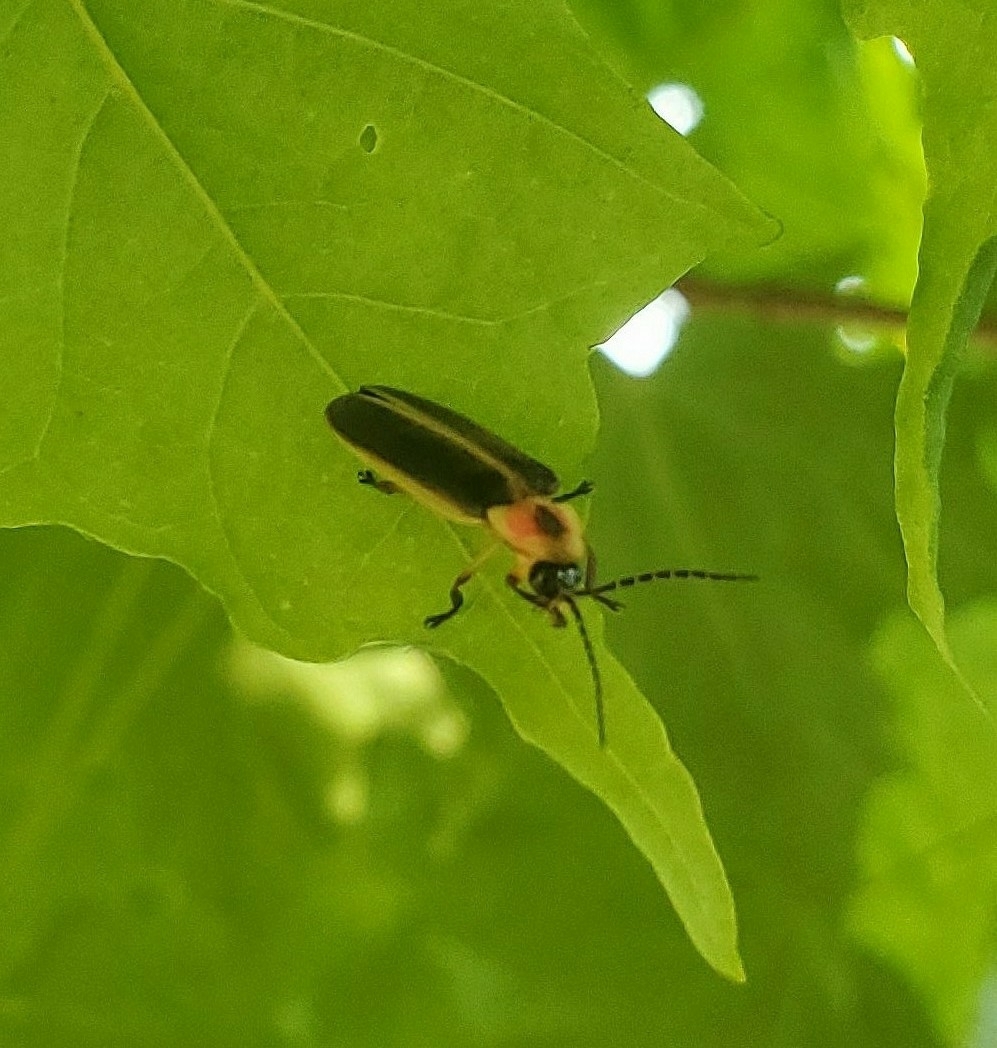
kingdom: Animalia
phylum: Arthropoda
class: Insecta
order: Coleoptera
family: Lampyridae
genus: Photinus
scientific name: Photinus pyralis
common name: Big dipper firefly
